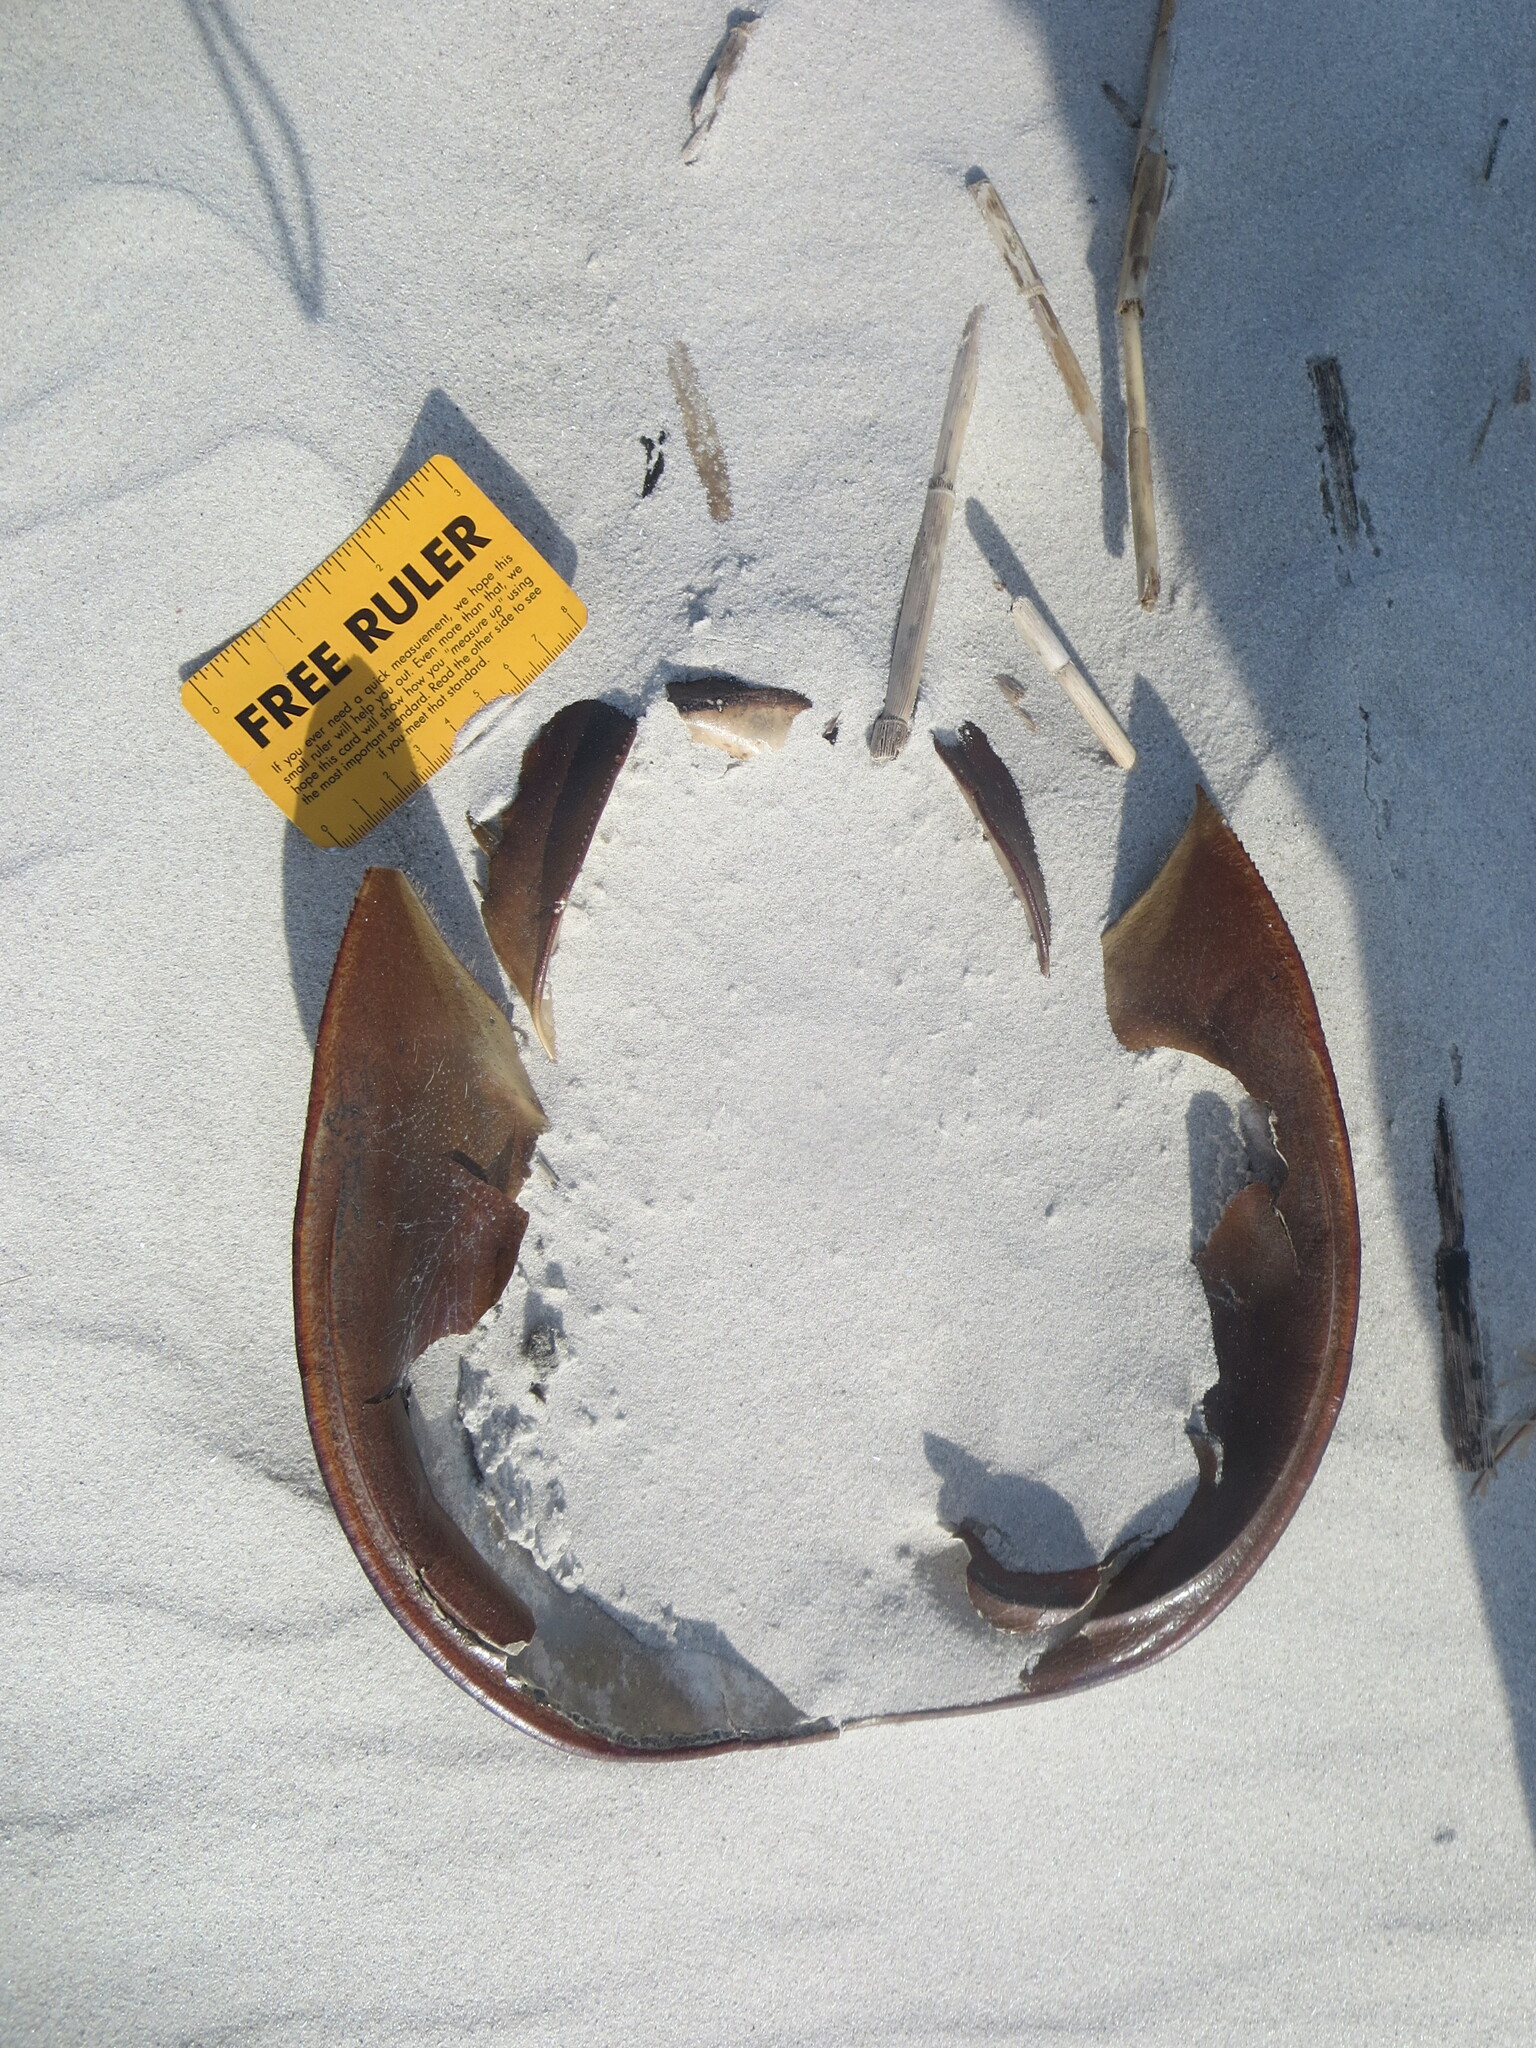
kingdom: Animalia
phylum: Arthropoda
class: Merostomata
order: Xiphosurida
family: Limulidae
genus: Limulus
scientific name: Limulus polyphemus
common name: Horseshoe crab
